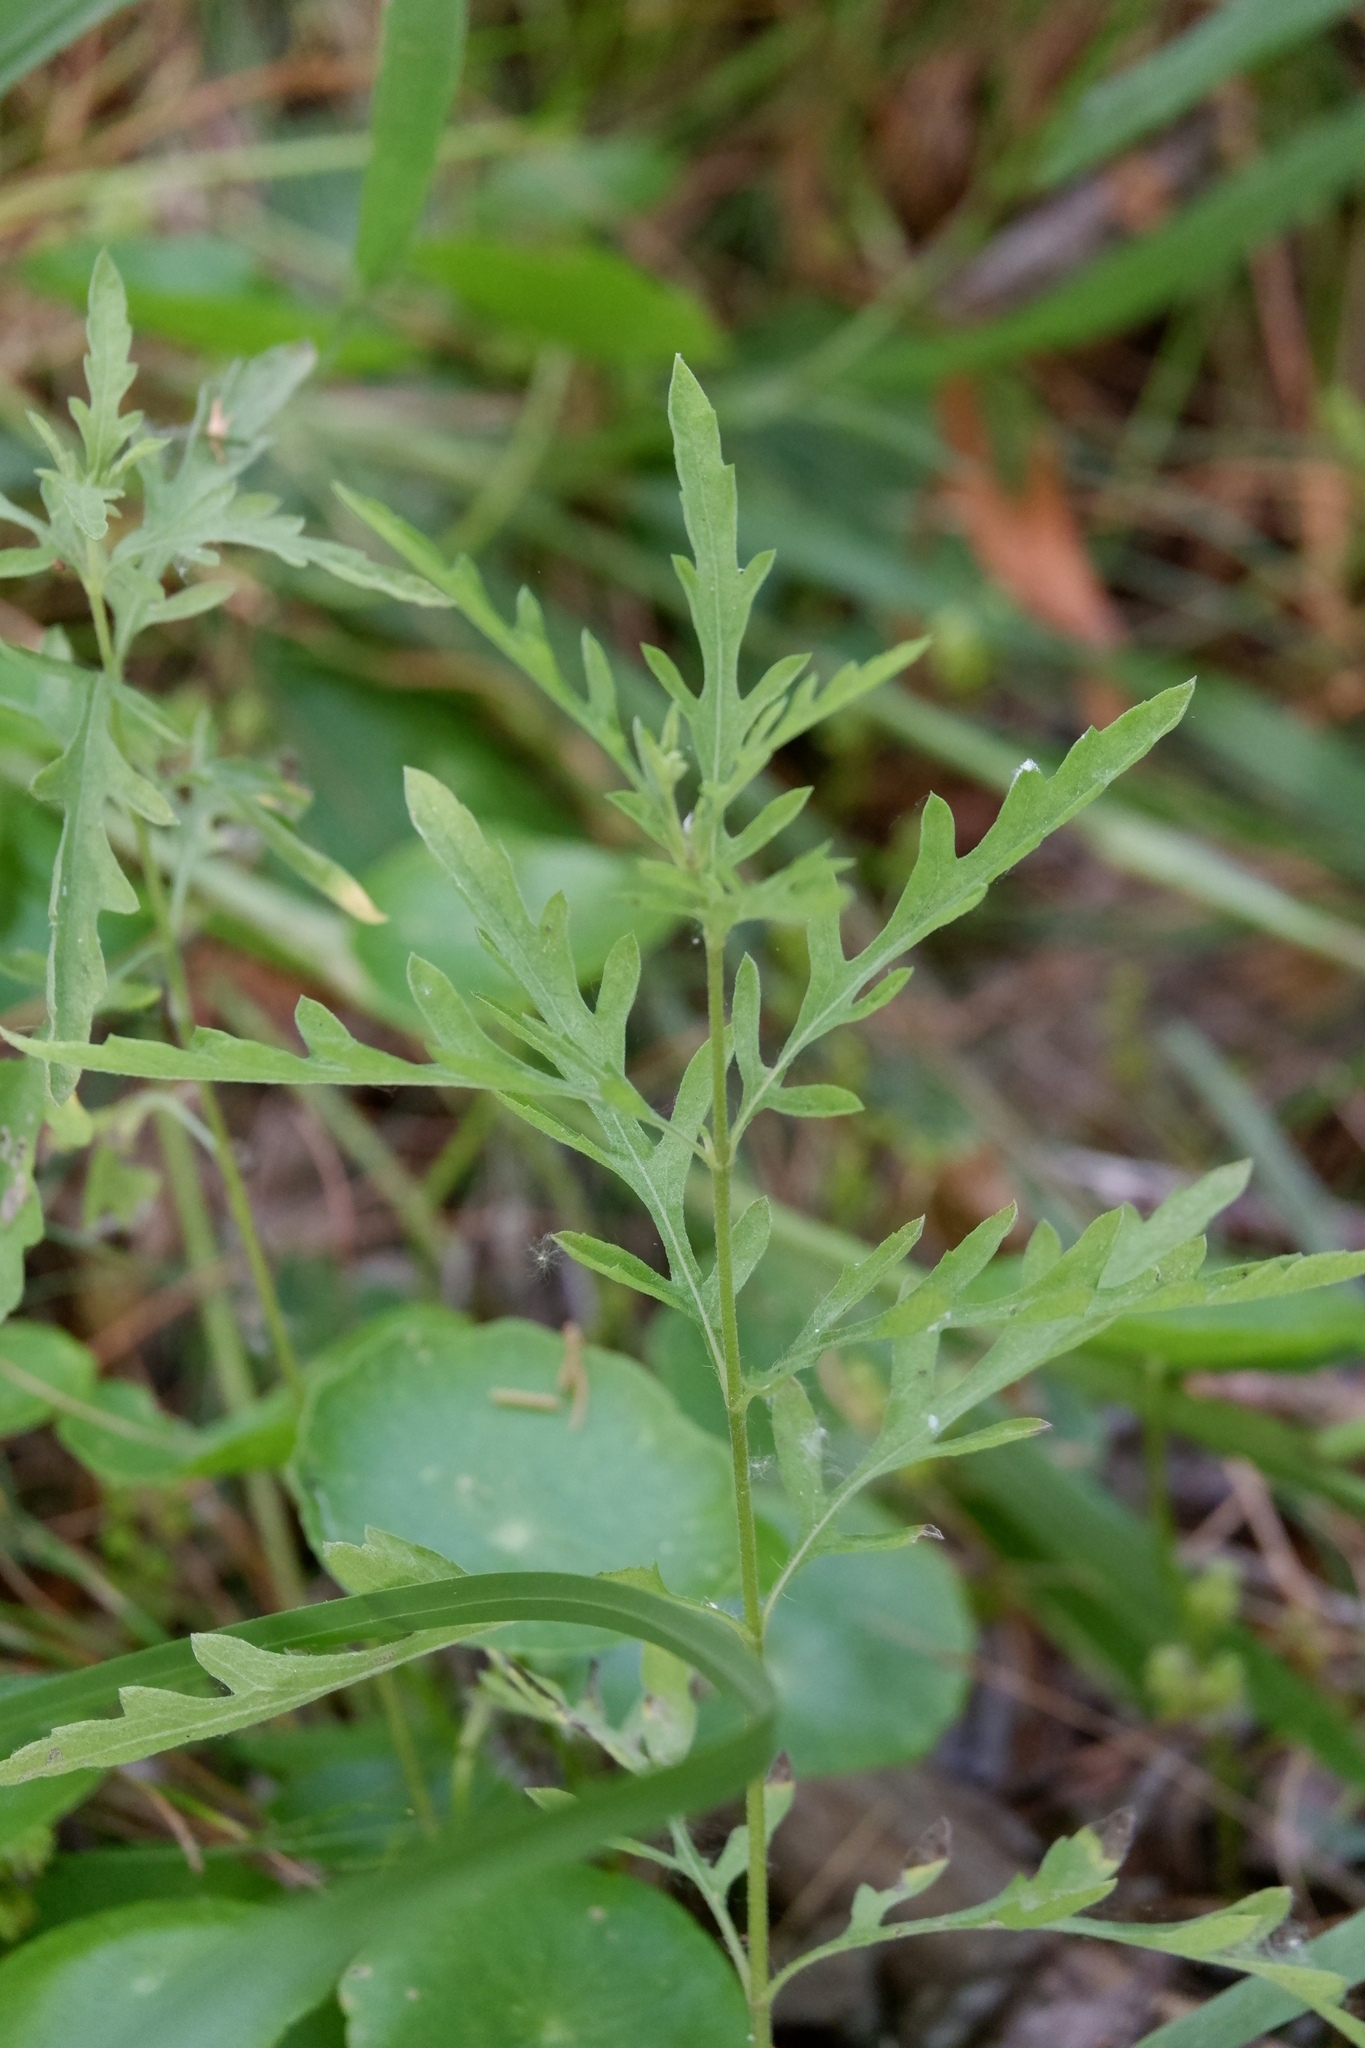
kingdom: Plantae
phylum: Tracheophyta
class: Magnoliopsida
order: Asterales
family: Asteraceae
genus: Ambrosia
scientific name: Ambrosia psilostachya
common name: Perennial ragweed
